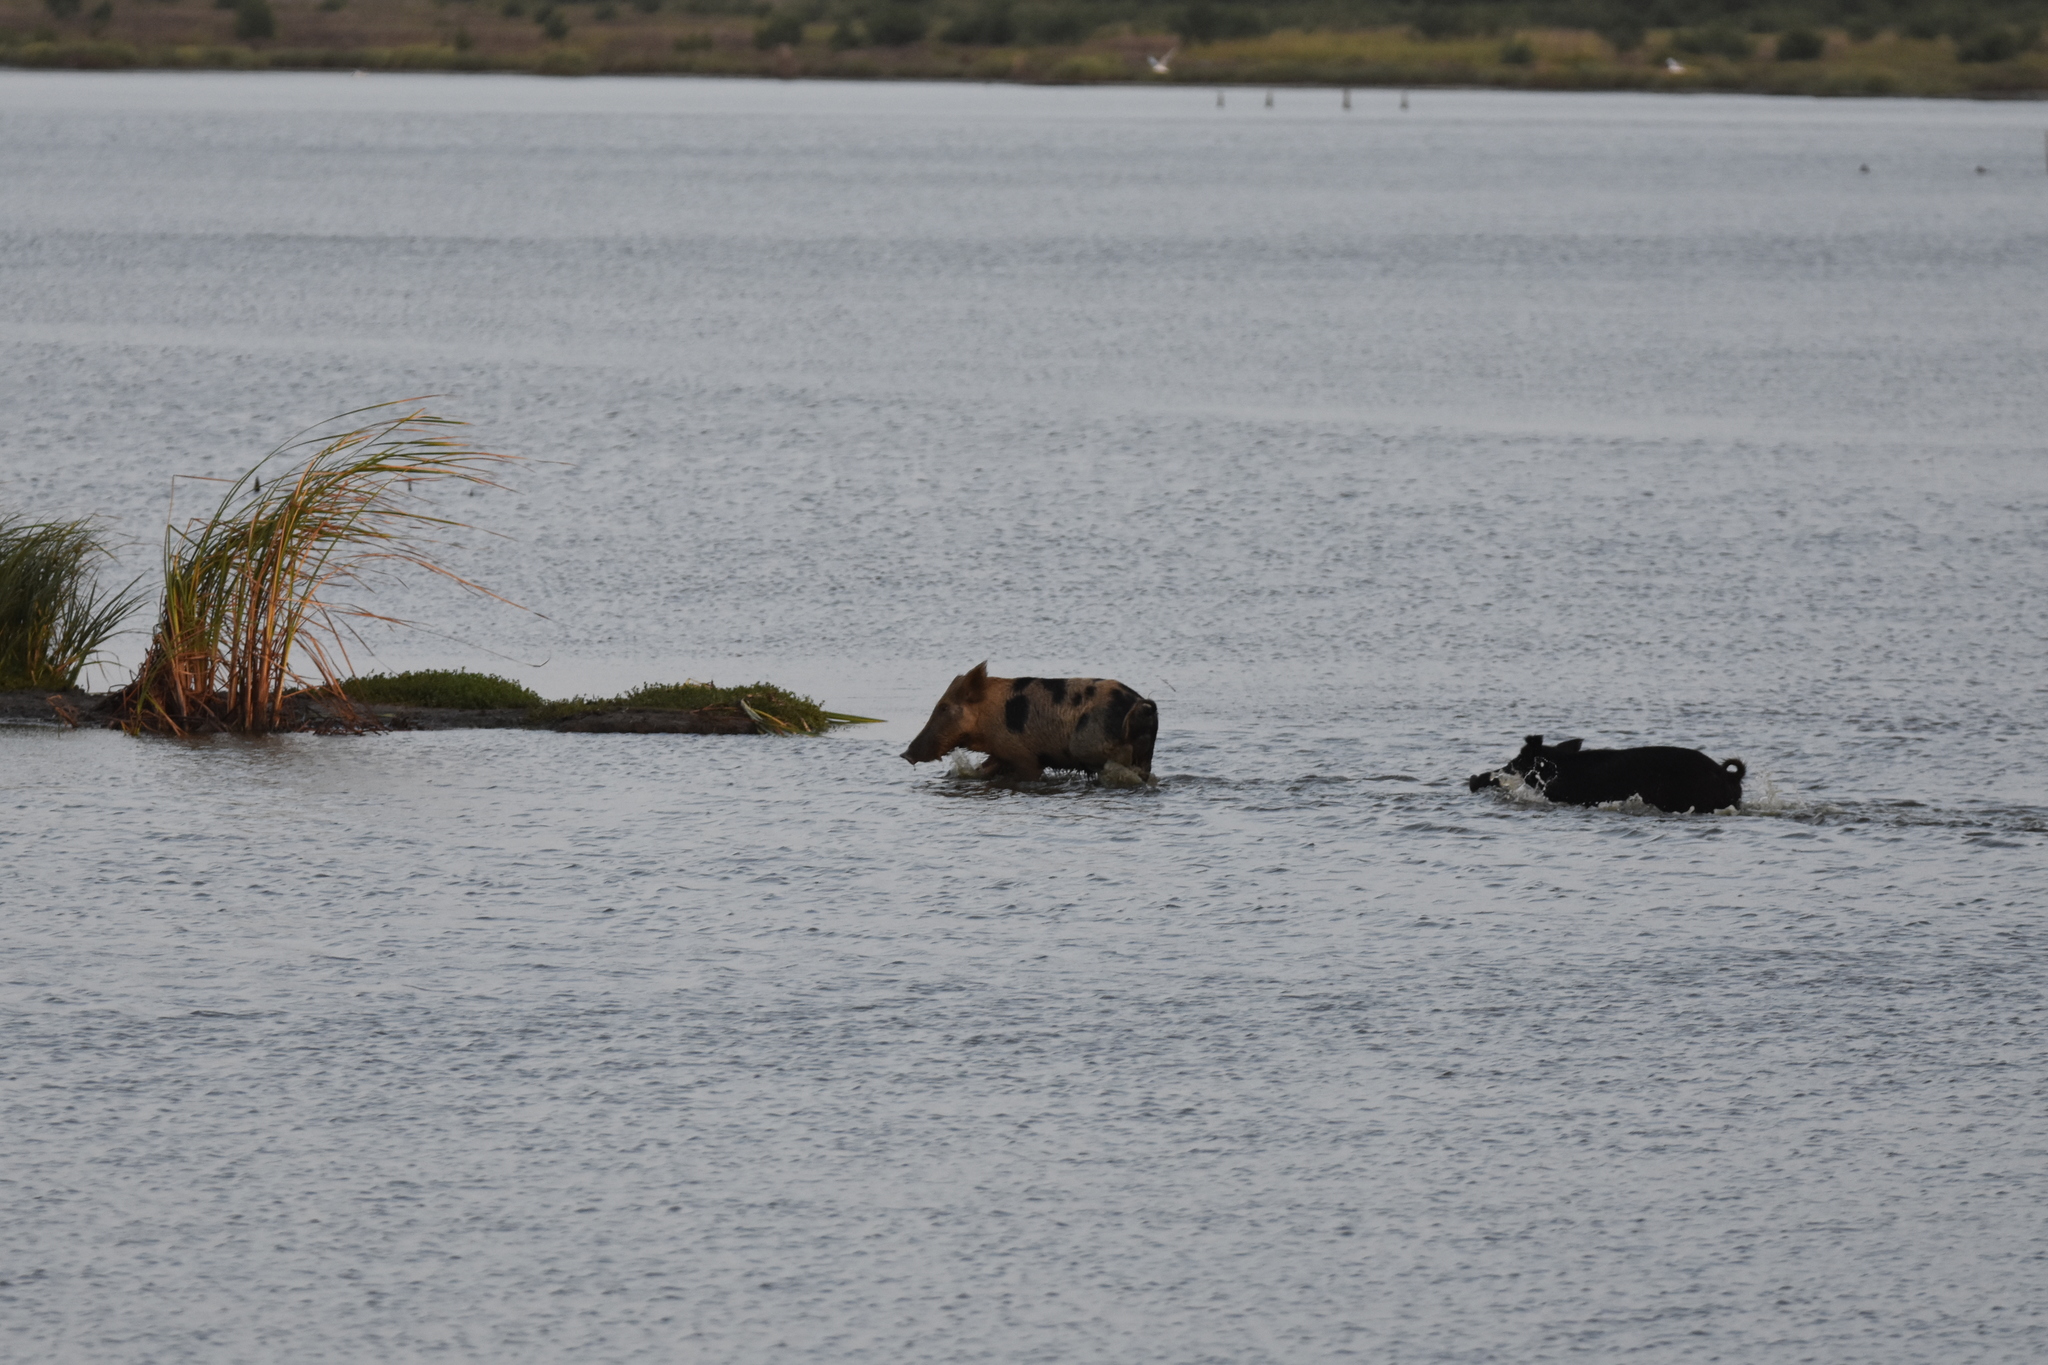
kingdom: Animalia
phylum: Chordata
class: Mammalia
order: Artiodactyla
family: Suidae
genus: Sus
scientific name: Sus scrofa
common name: Wild boar
